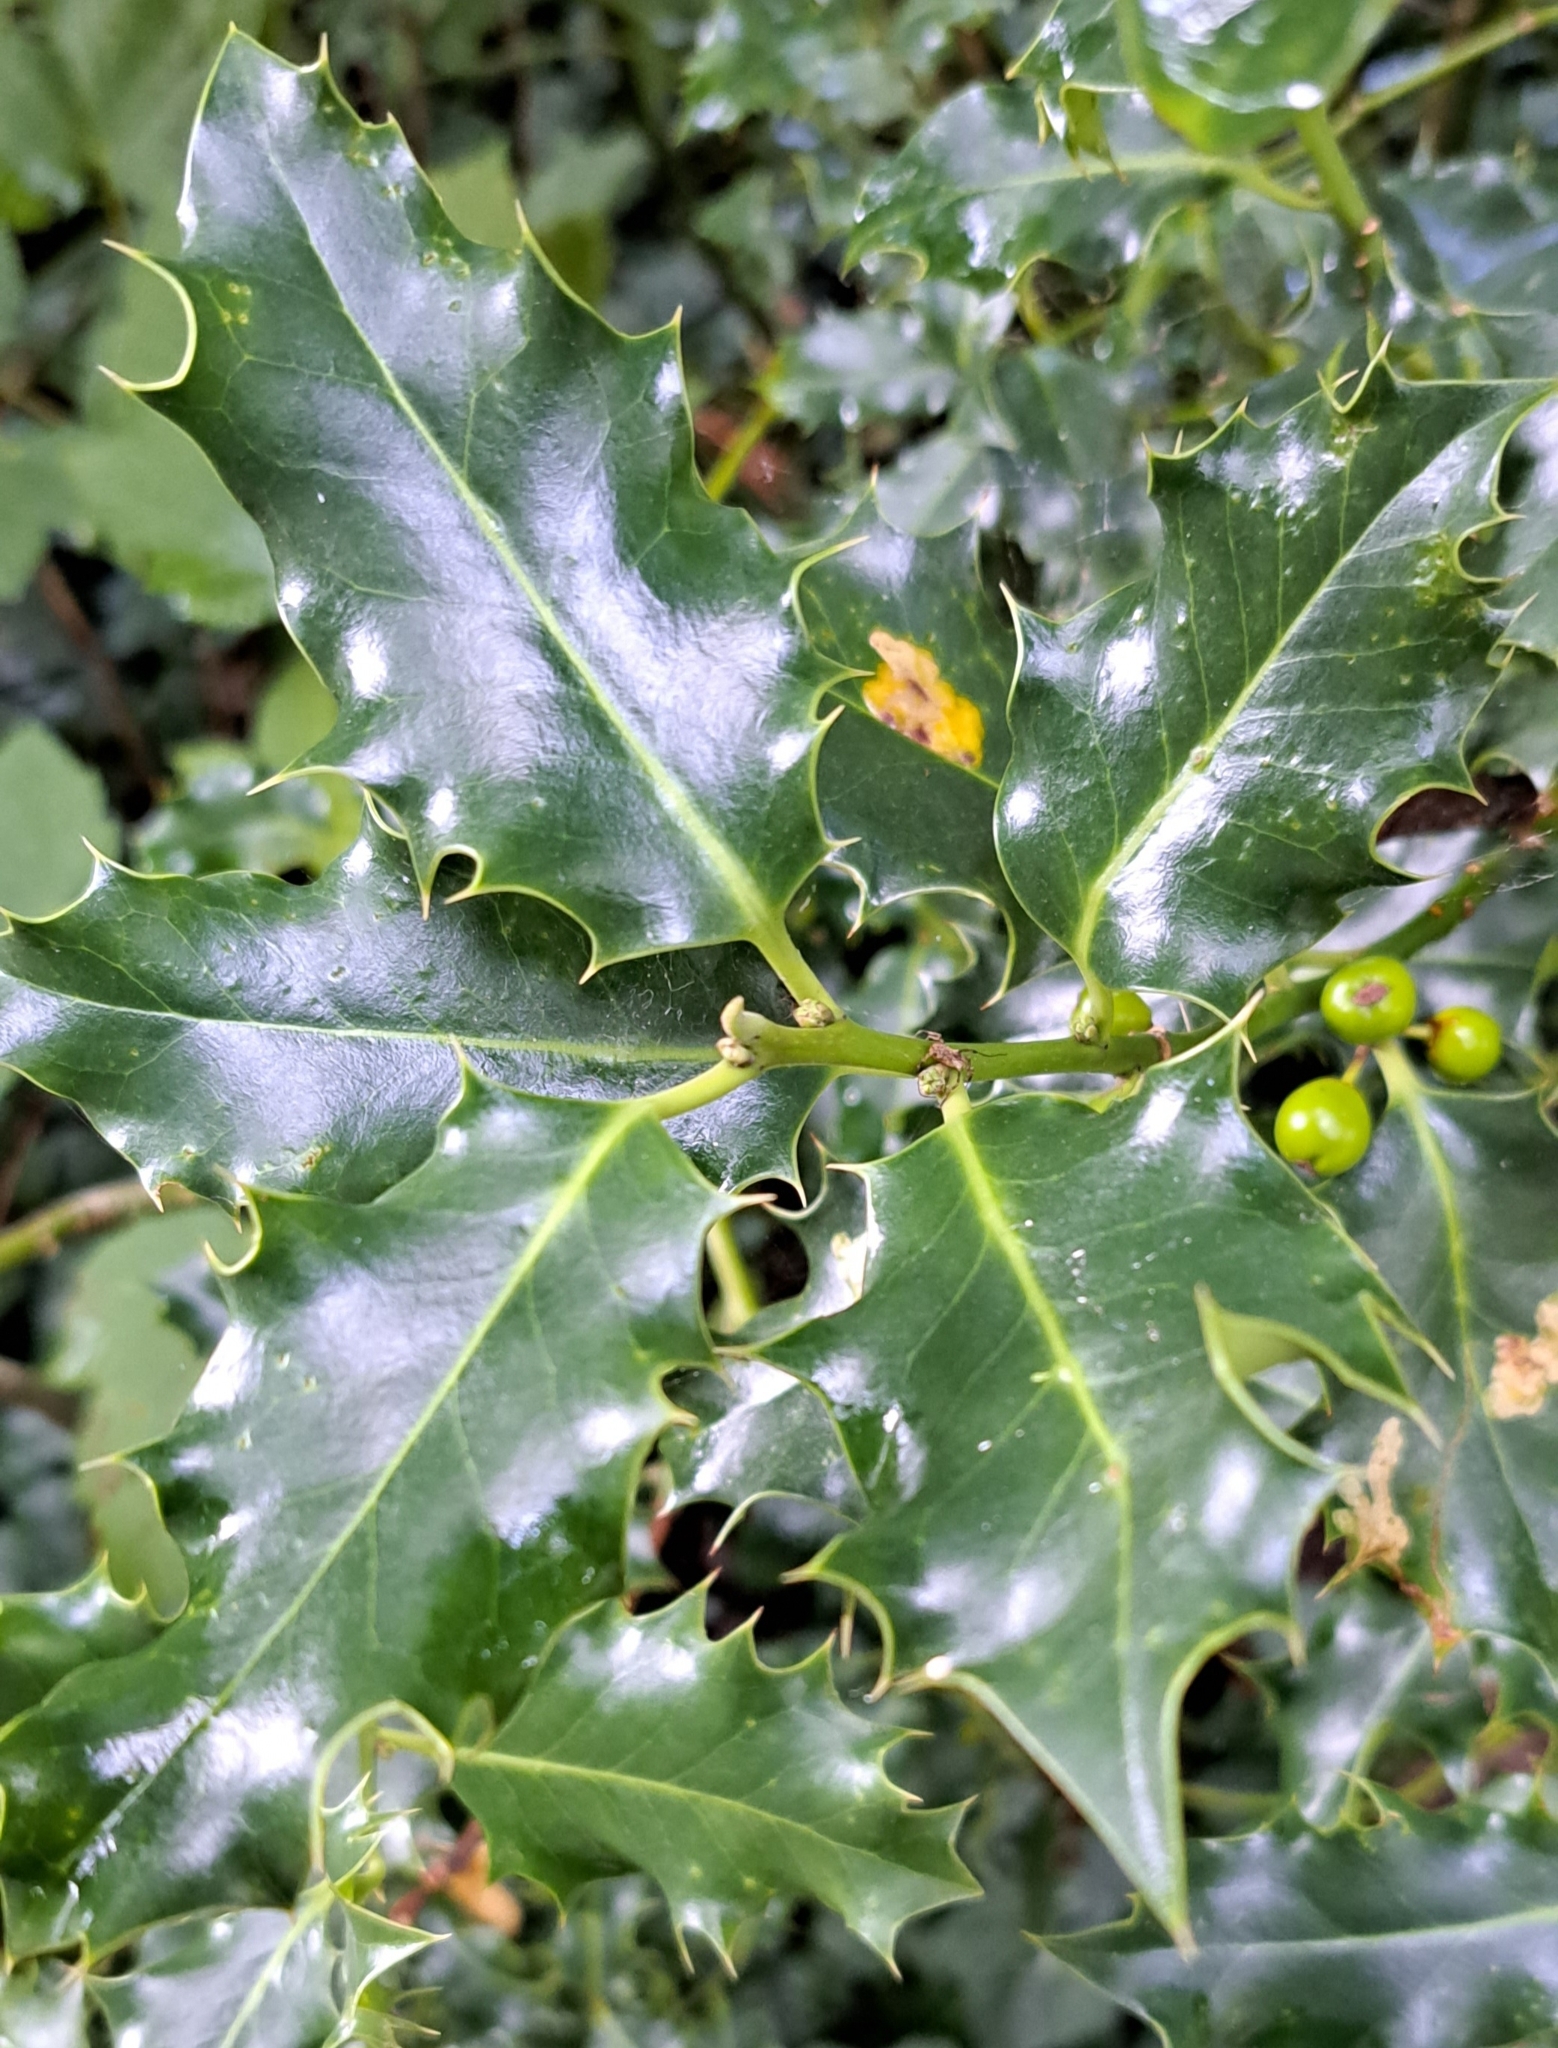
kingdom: Plantae
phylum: Tracheophyta
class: Magnoliopsida
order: Aquifoliales
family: Aquifoliaceae
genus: Ilex
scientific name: Ilex aquifolium
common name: English holly
